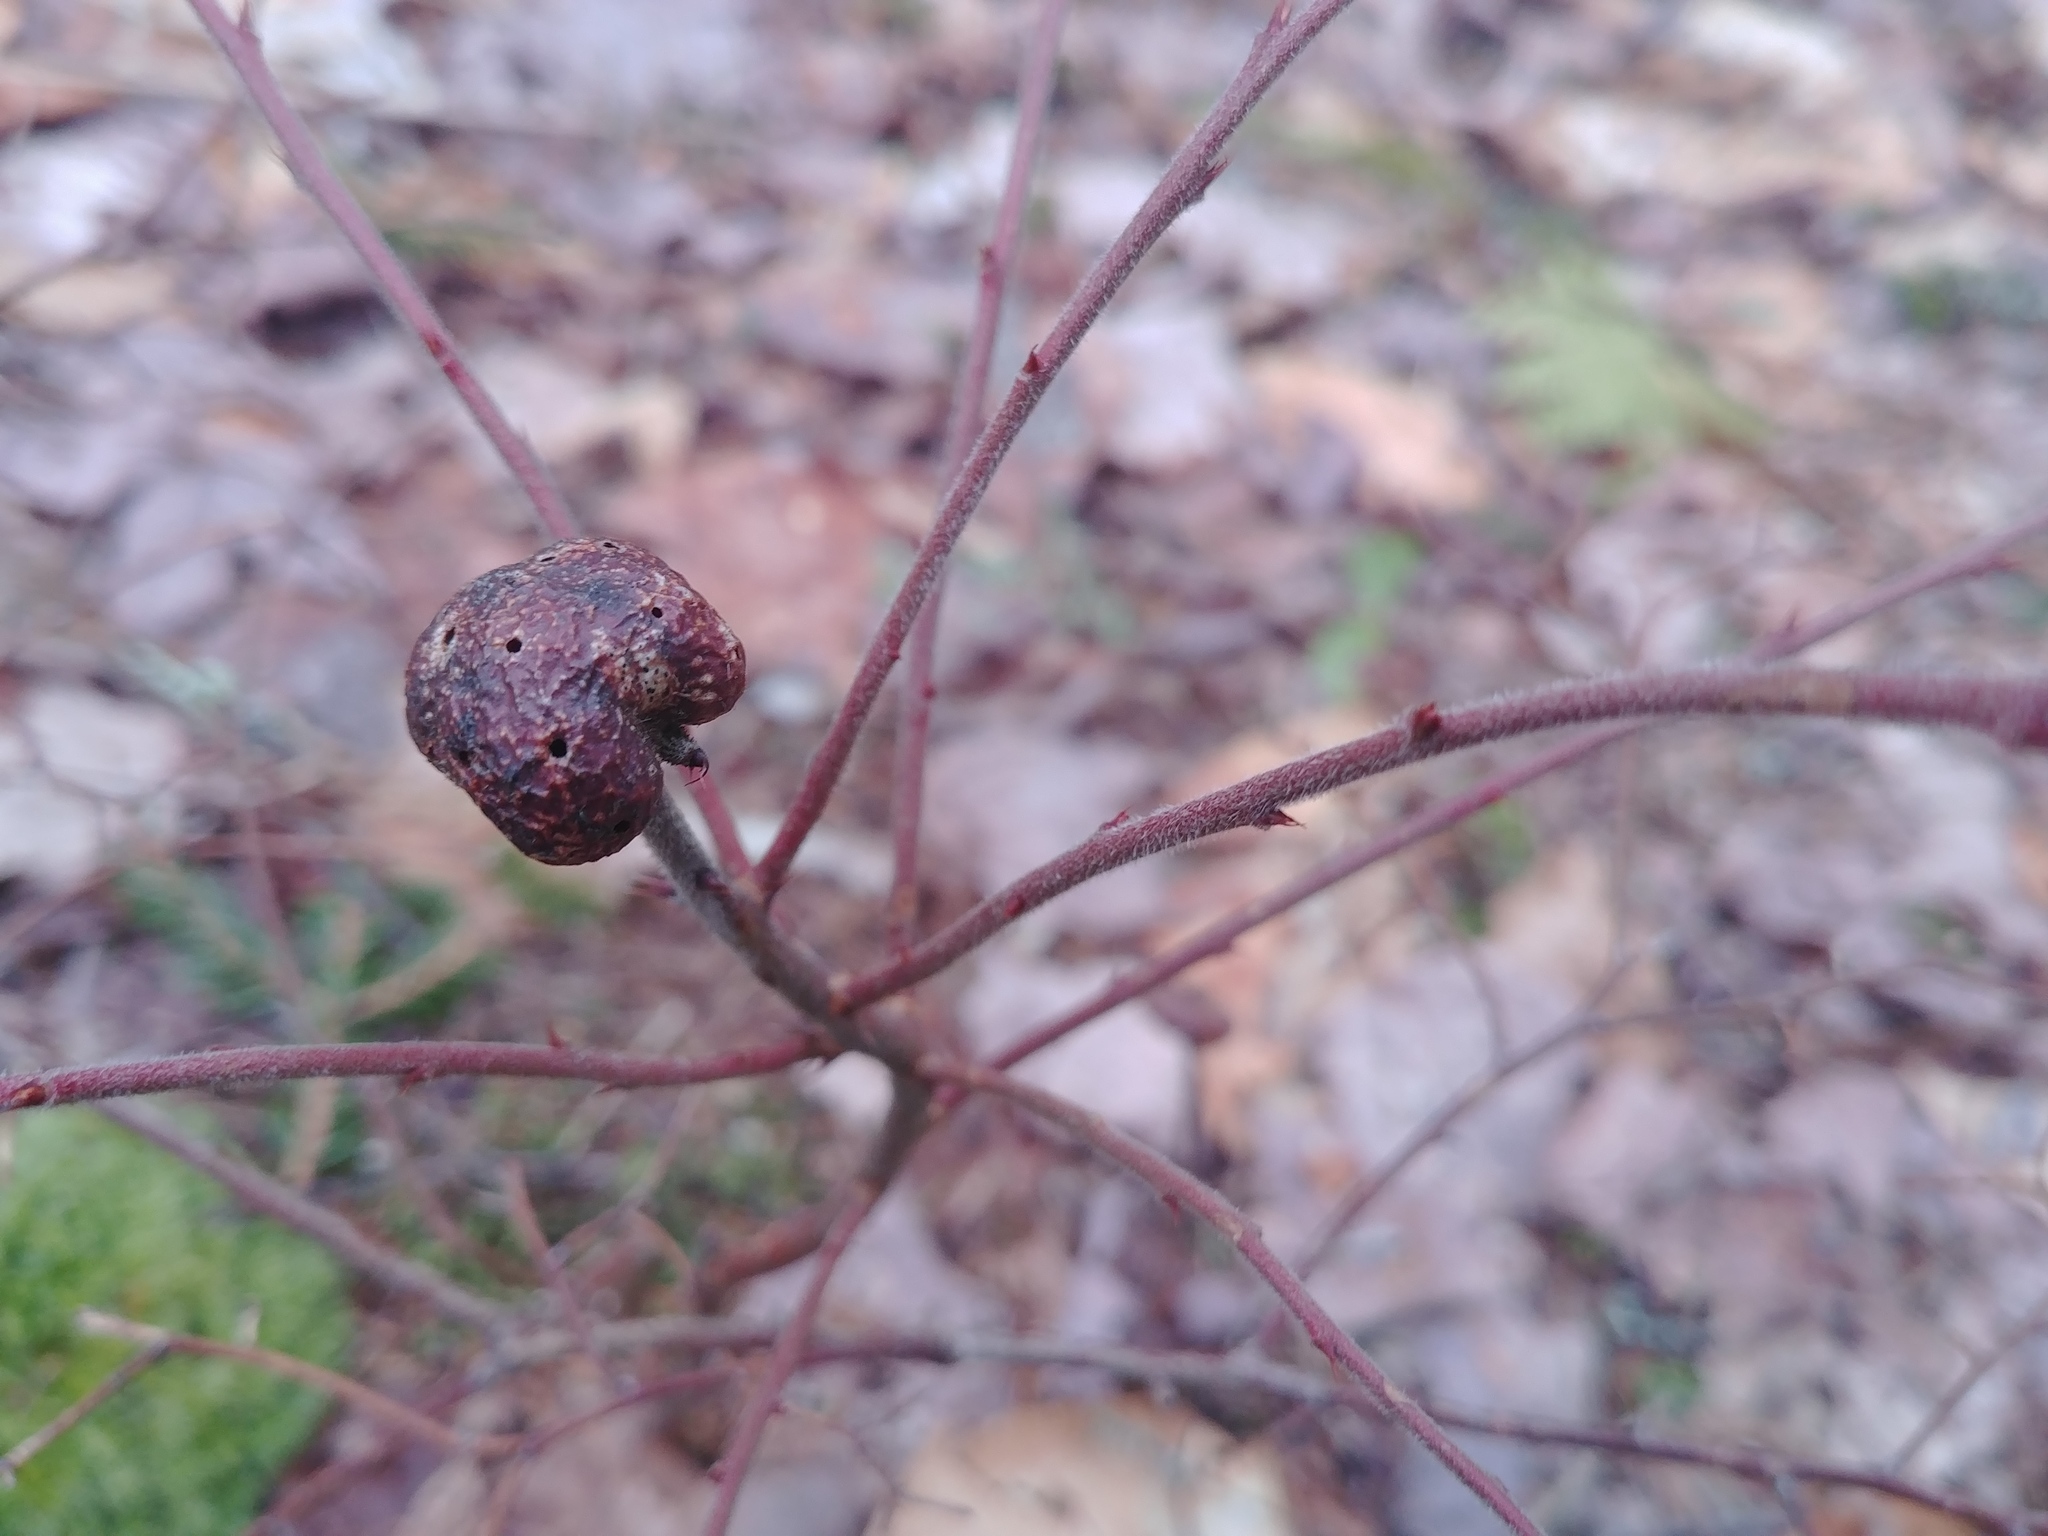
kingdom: Animalia
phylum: Arthropoda
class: Insecta
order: Hymenoptera
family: Pteromalidae
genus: Hemadas
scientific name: Hemadas nubilipennis
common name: Blueberry stem gall wasp
